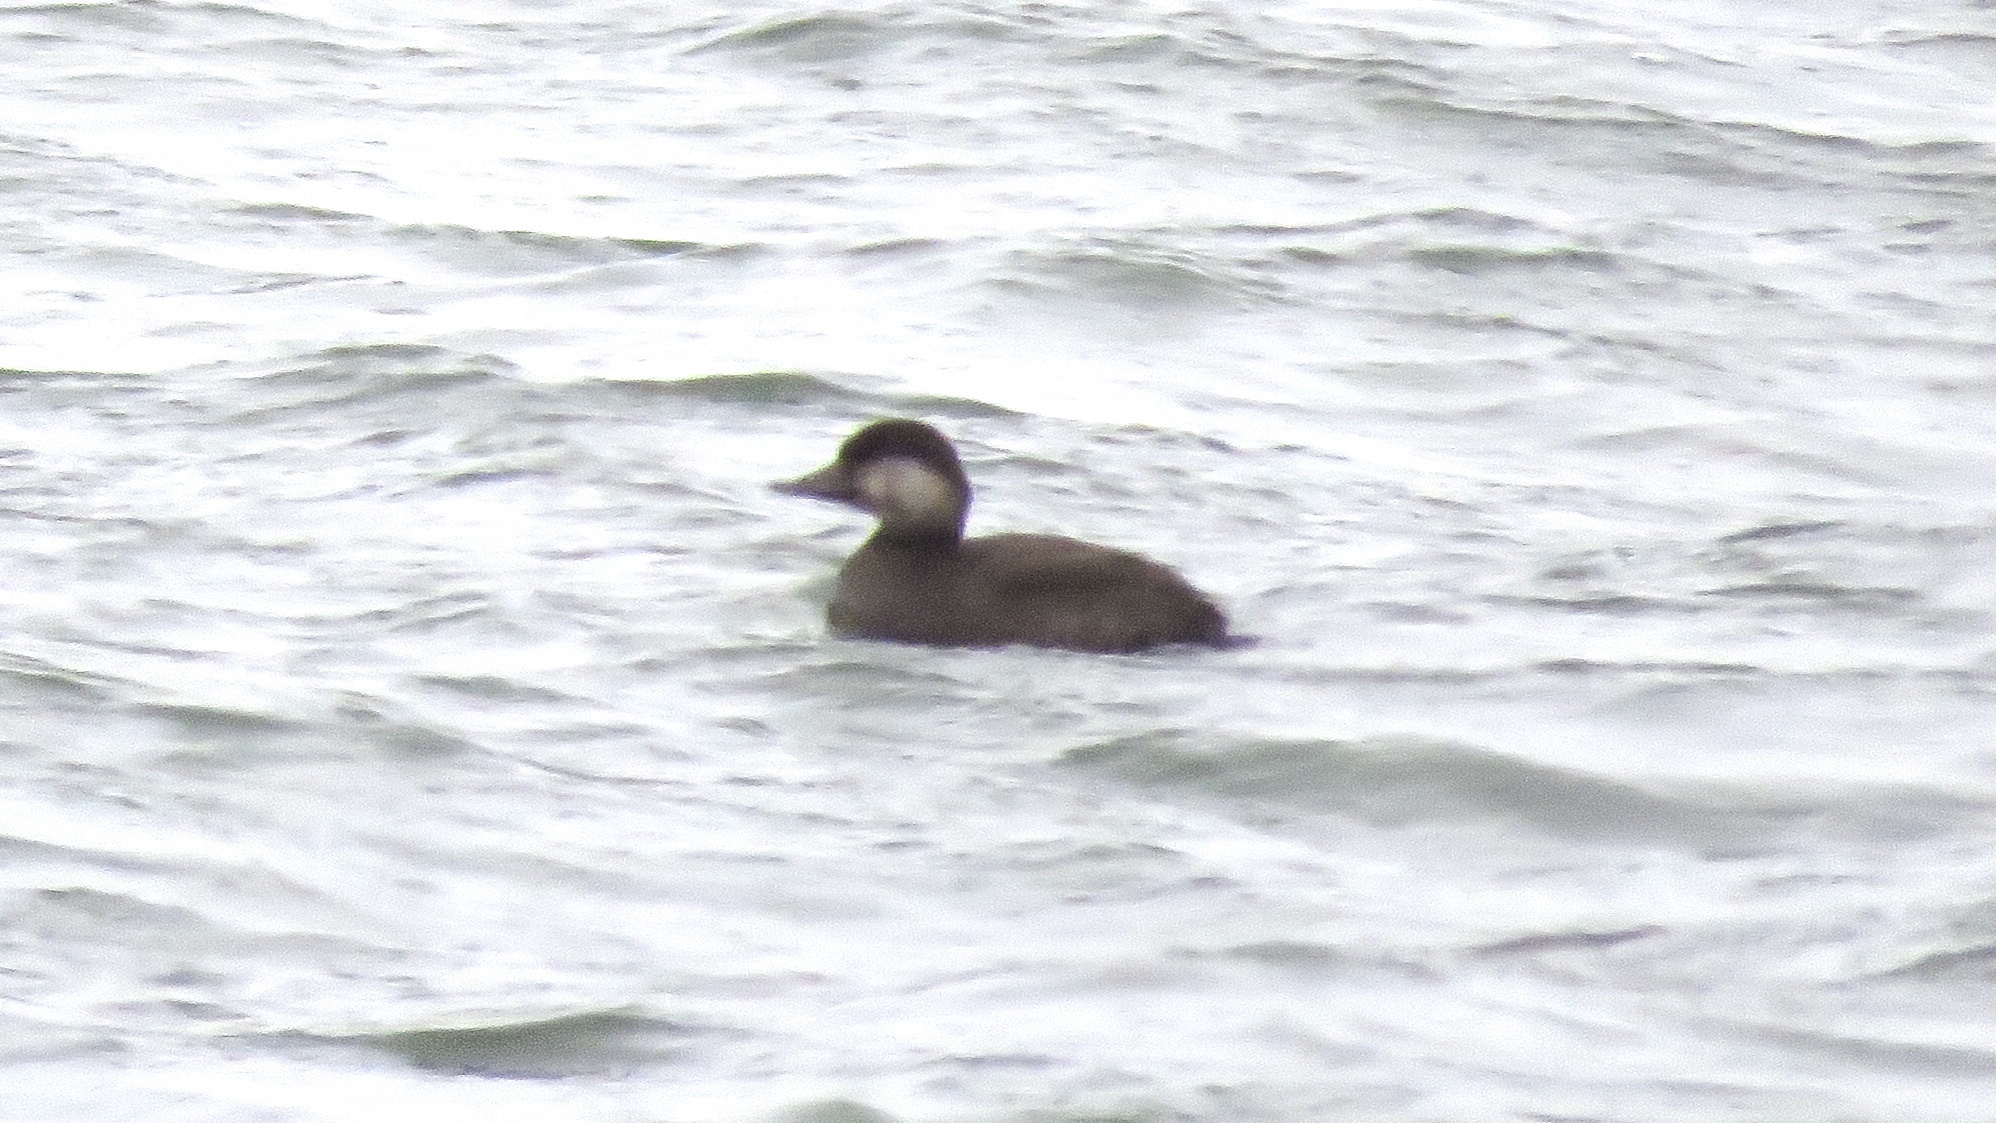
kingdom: Animalia
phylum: Chordata
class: Aves
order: Anseriformes
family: Anatidae
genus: Melanitta
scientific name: Melanitta americana
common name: Black scoter
